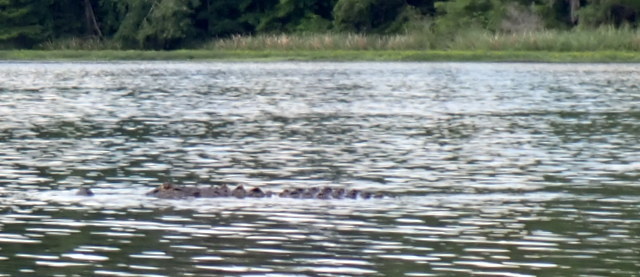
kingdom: Animalia
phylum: Chordata
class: Crocodylia
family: Alligatoridae
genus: Alligator
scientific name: Alligator mississippiensis
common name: American alligator
